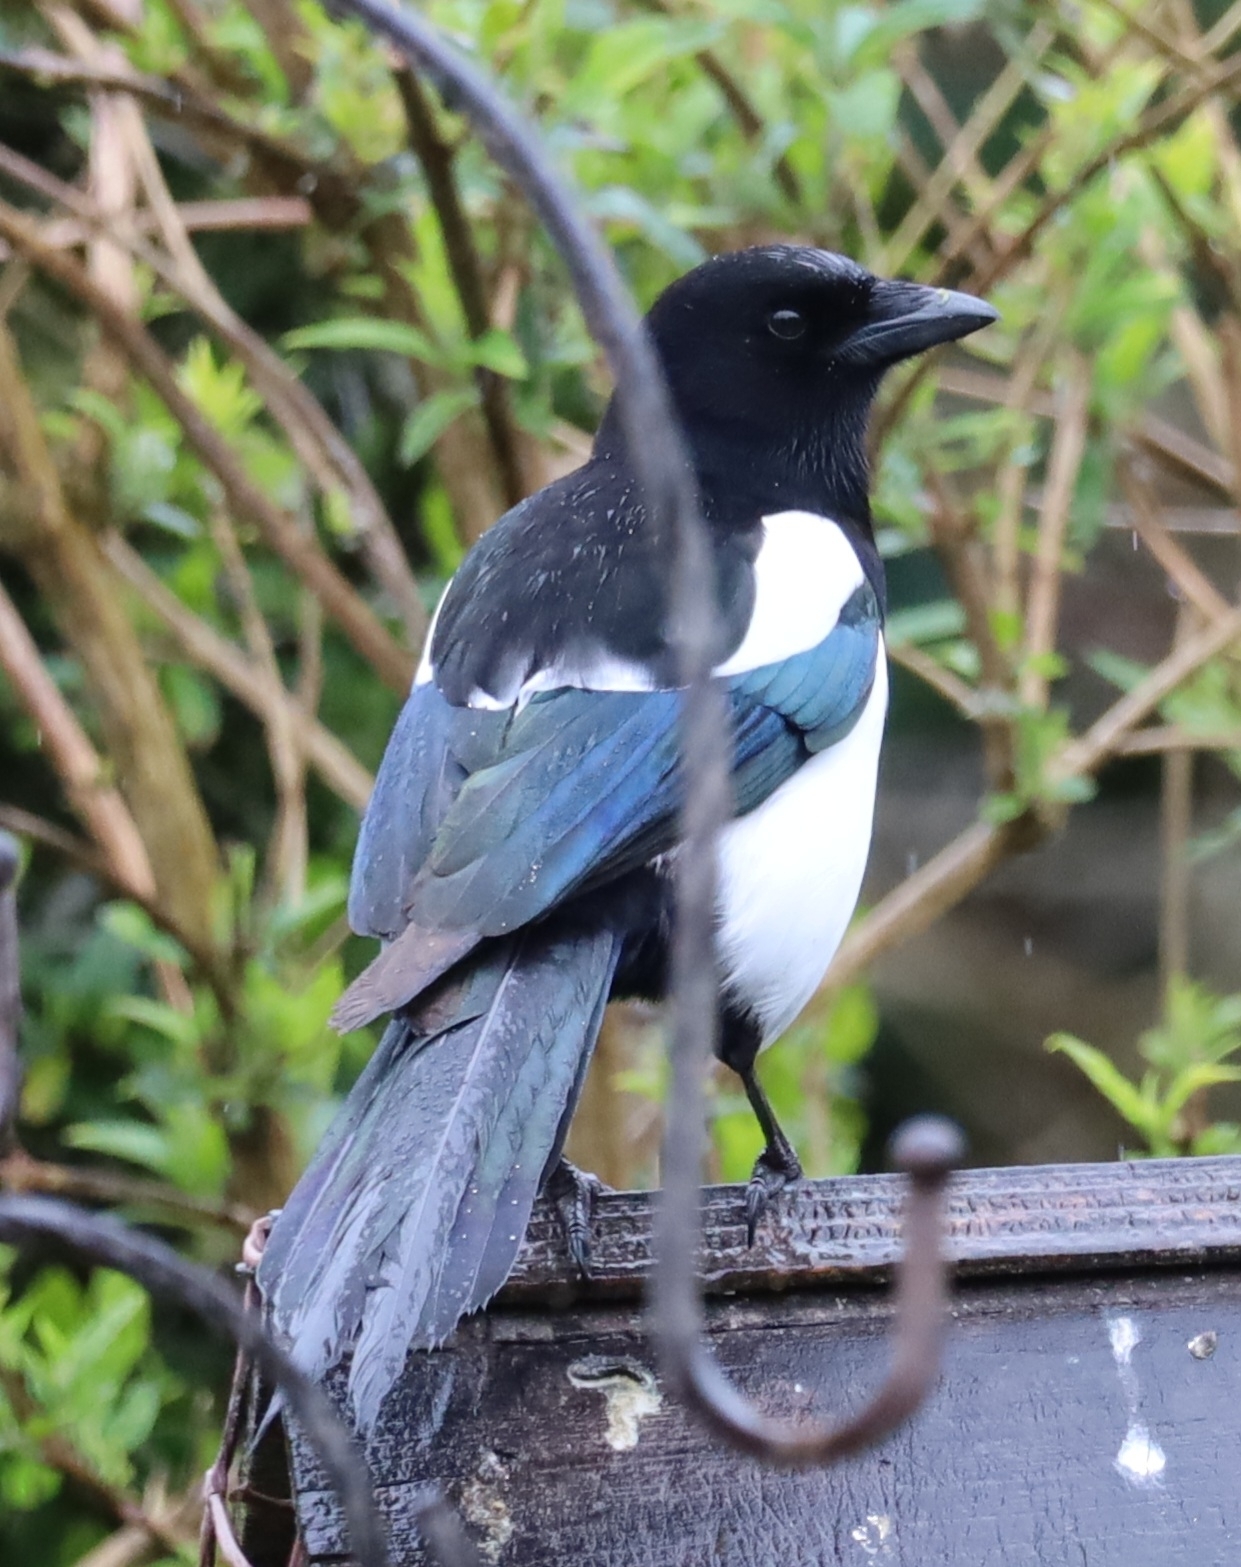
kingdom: Animalia
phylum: Chordata
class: Aves
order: Passeriformes
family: Corvidae
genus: Pica
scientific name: Pica pica
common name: Eurasian magpie
